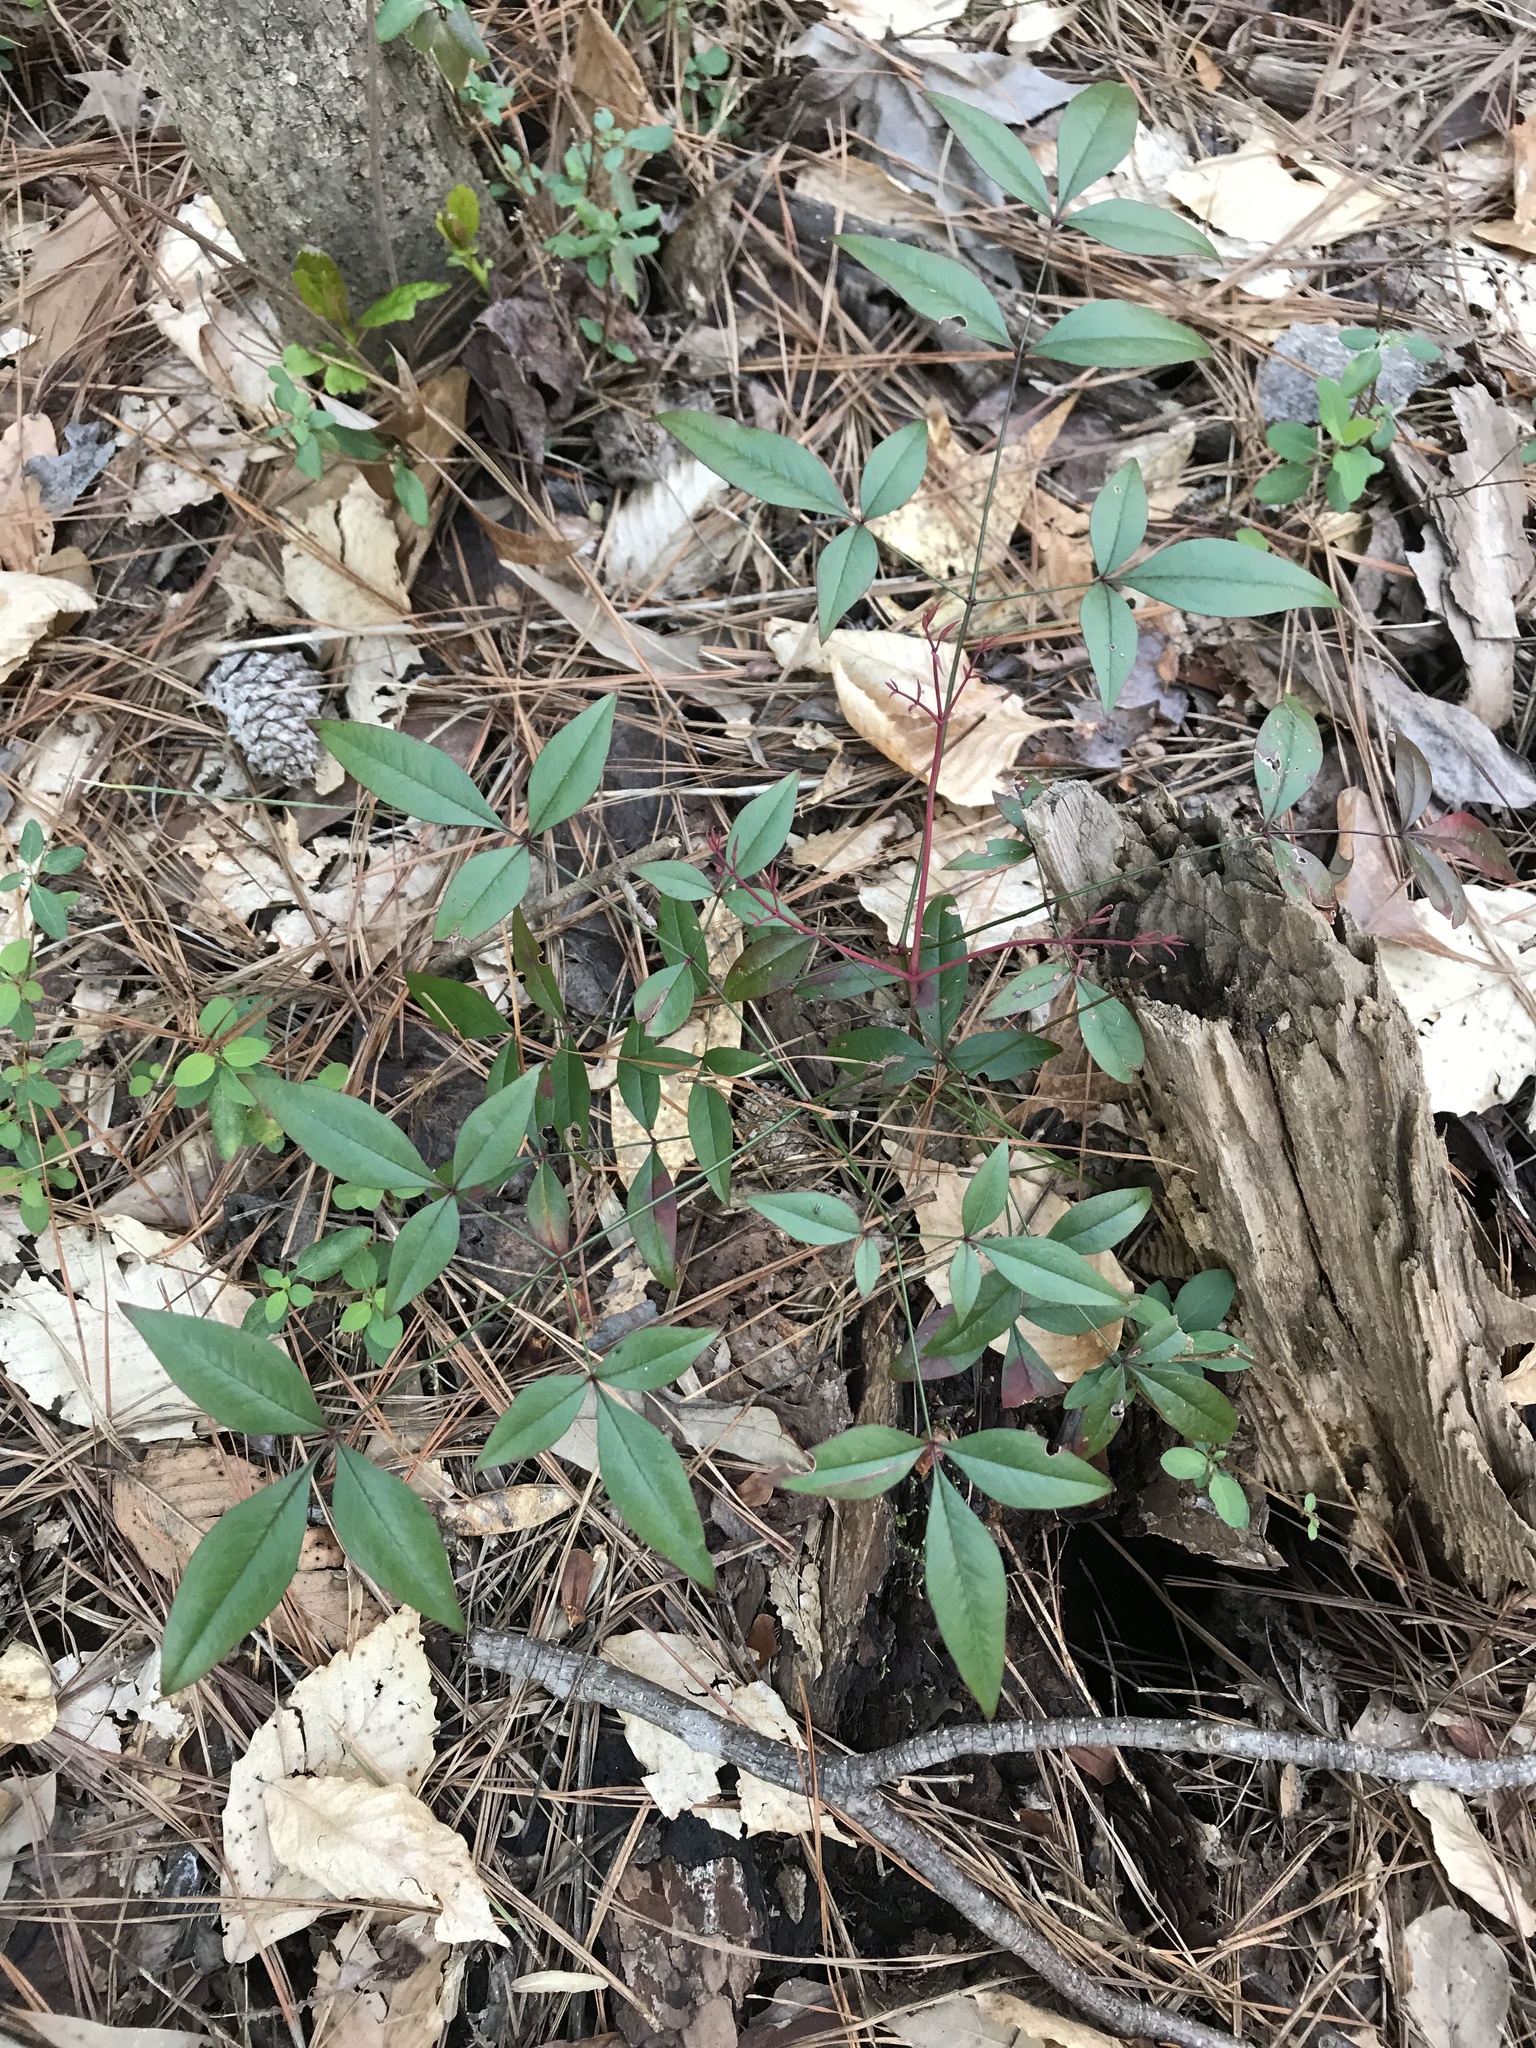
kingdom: Plantae
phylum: Tracheophyta
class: Magnoliopsida
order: Ranunculales
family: Berberidaceae
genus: Nandina
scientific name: Nandina domestica
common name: Sacred bamboo
